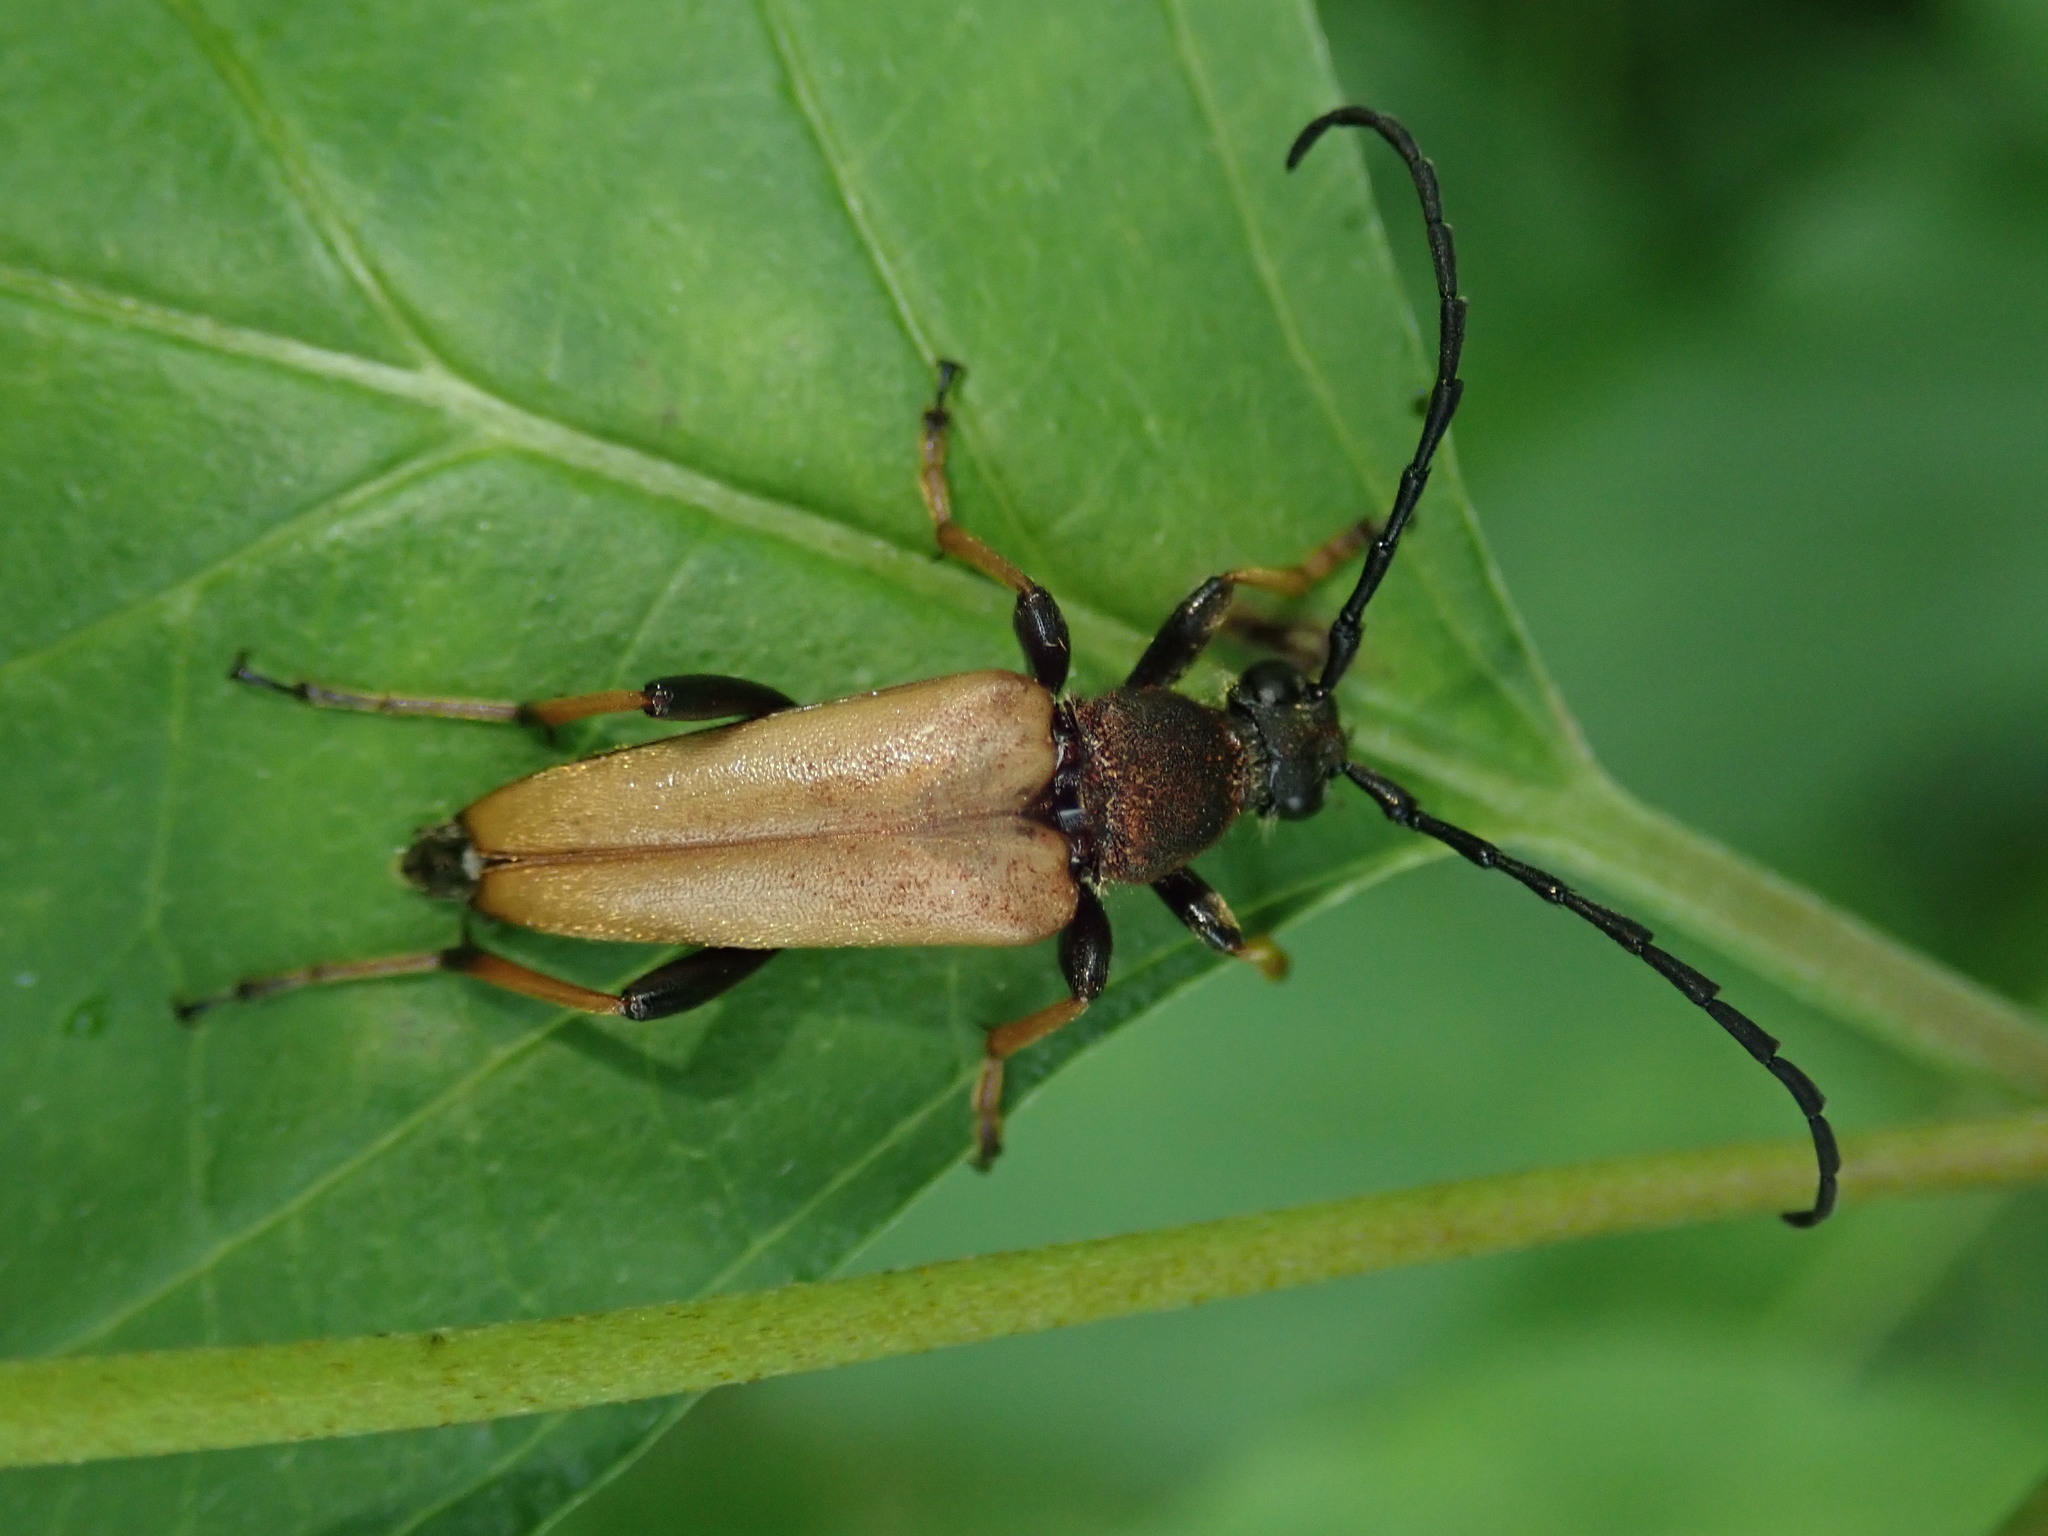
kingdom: Animalia
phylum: Arthropoda
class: Insecta
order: Coleoptera
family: Cerambycidae
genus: Stictoleptura
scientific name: Stictoleptura rubra
